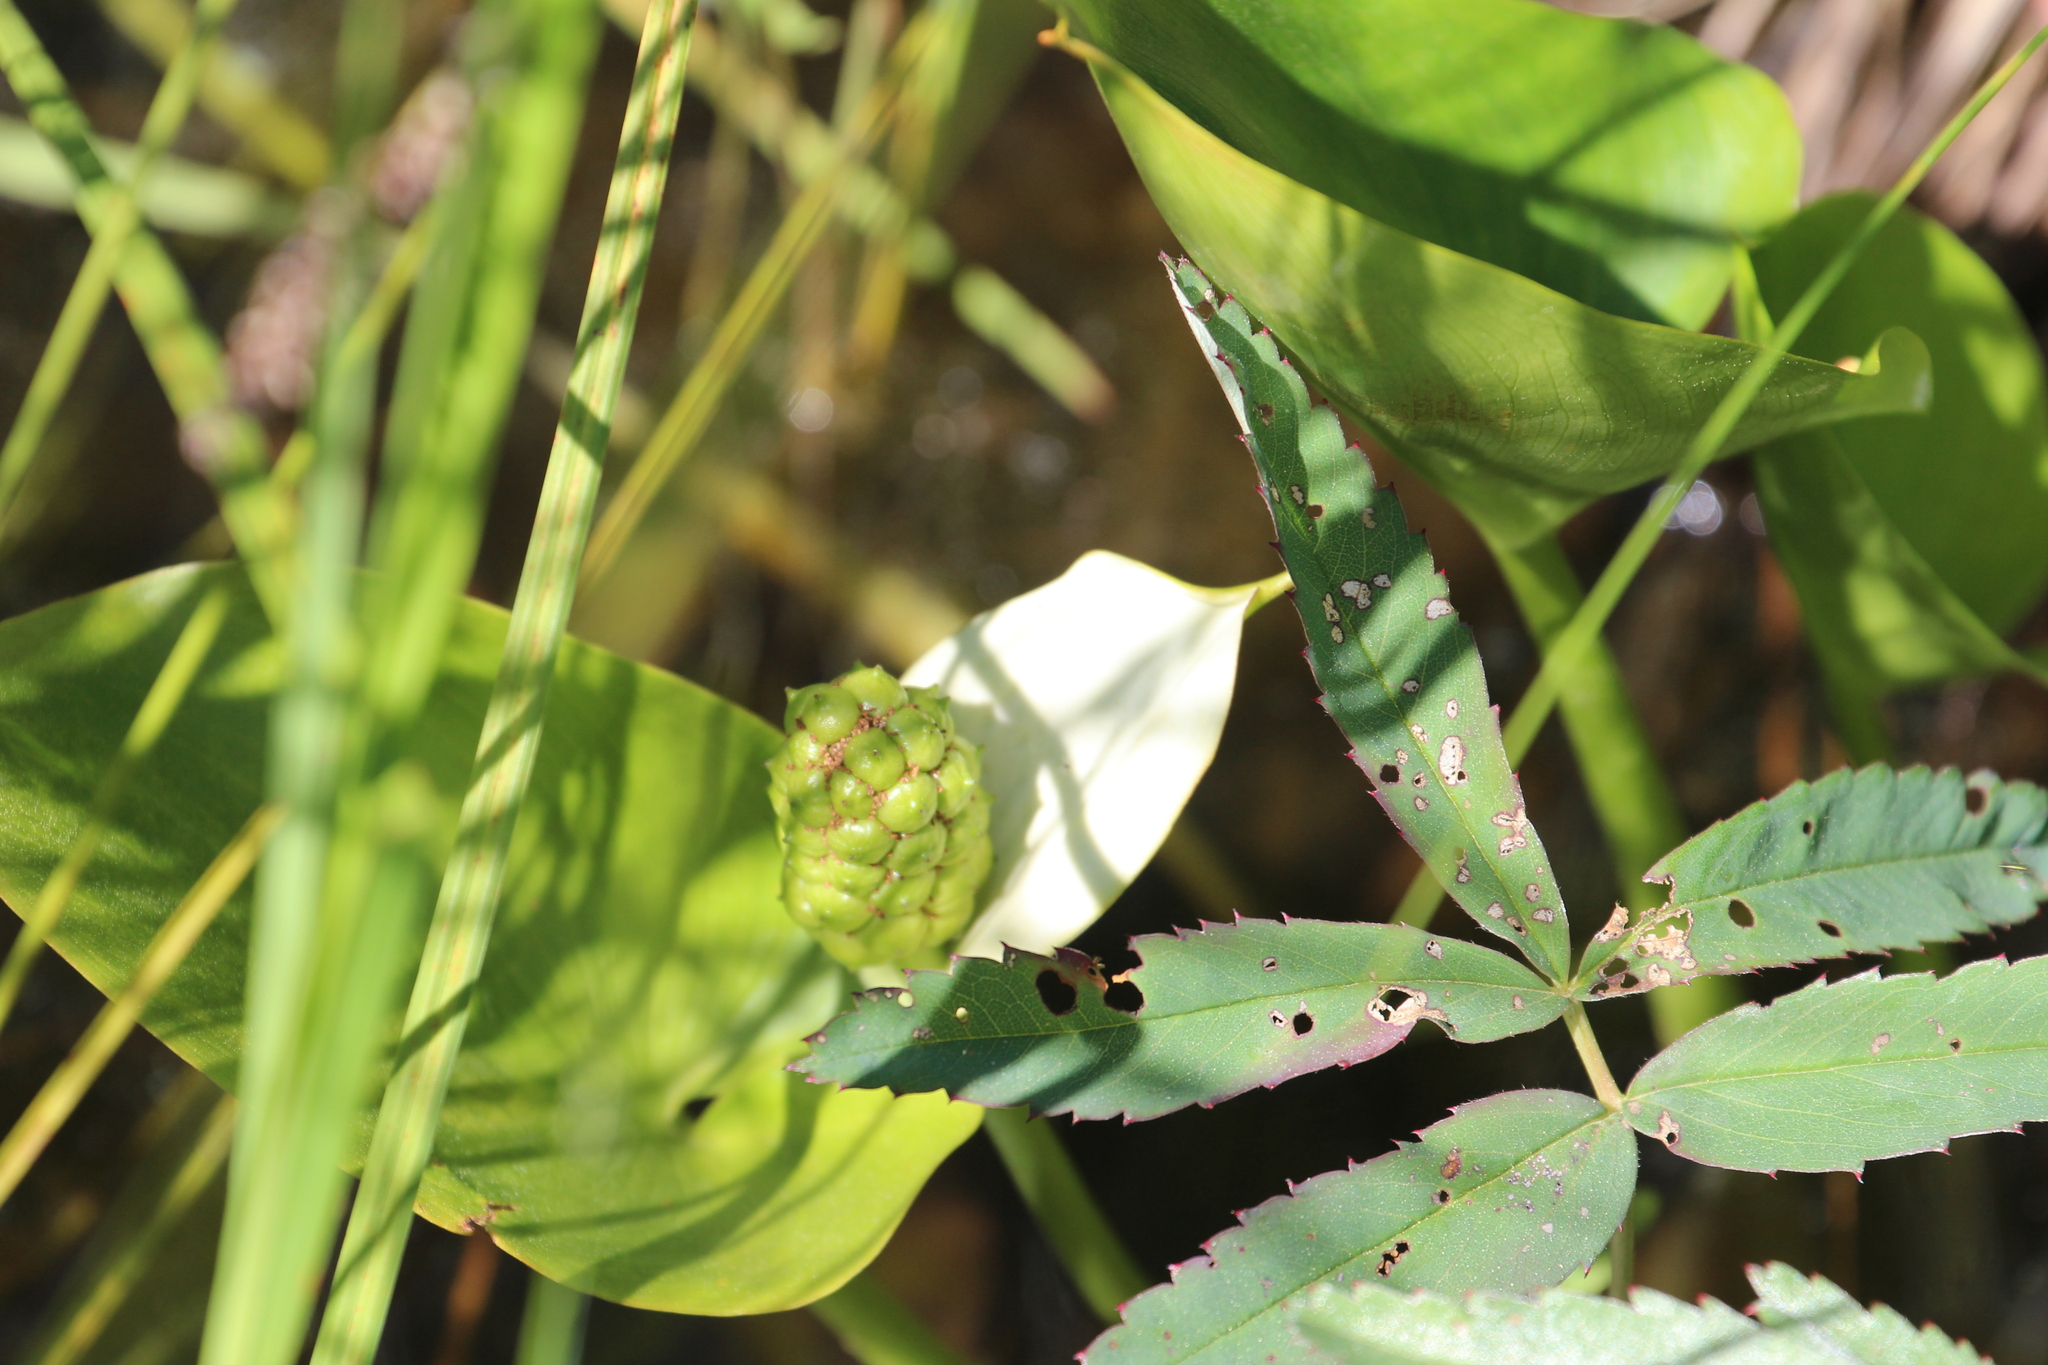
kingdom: Plantae
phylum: Tracheophyta
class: Liliopsida
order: Alismatales
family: Araceae
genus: Calla
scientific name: Calla palustris
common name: Bog arum
